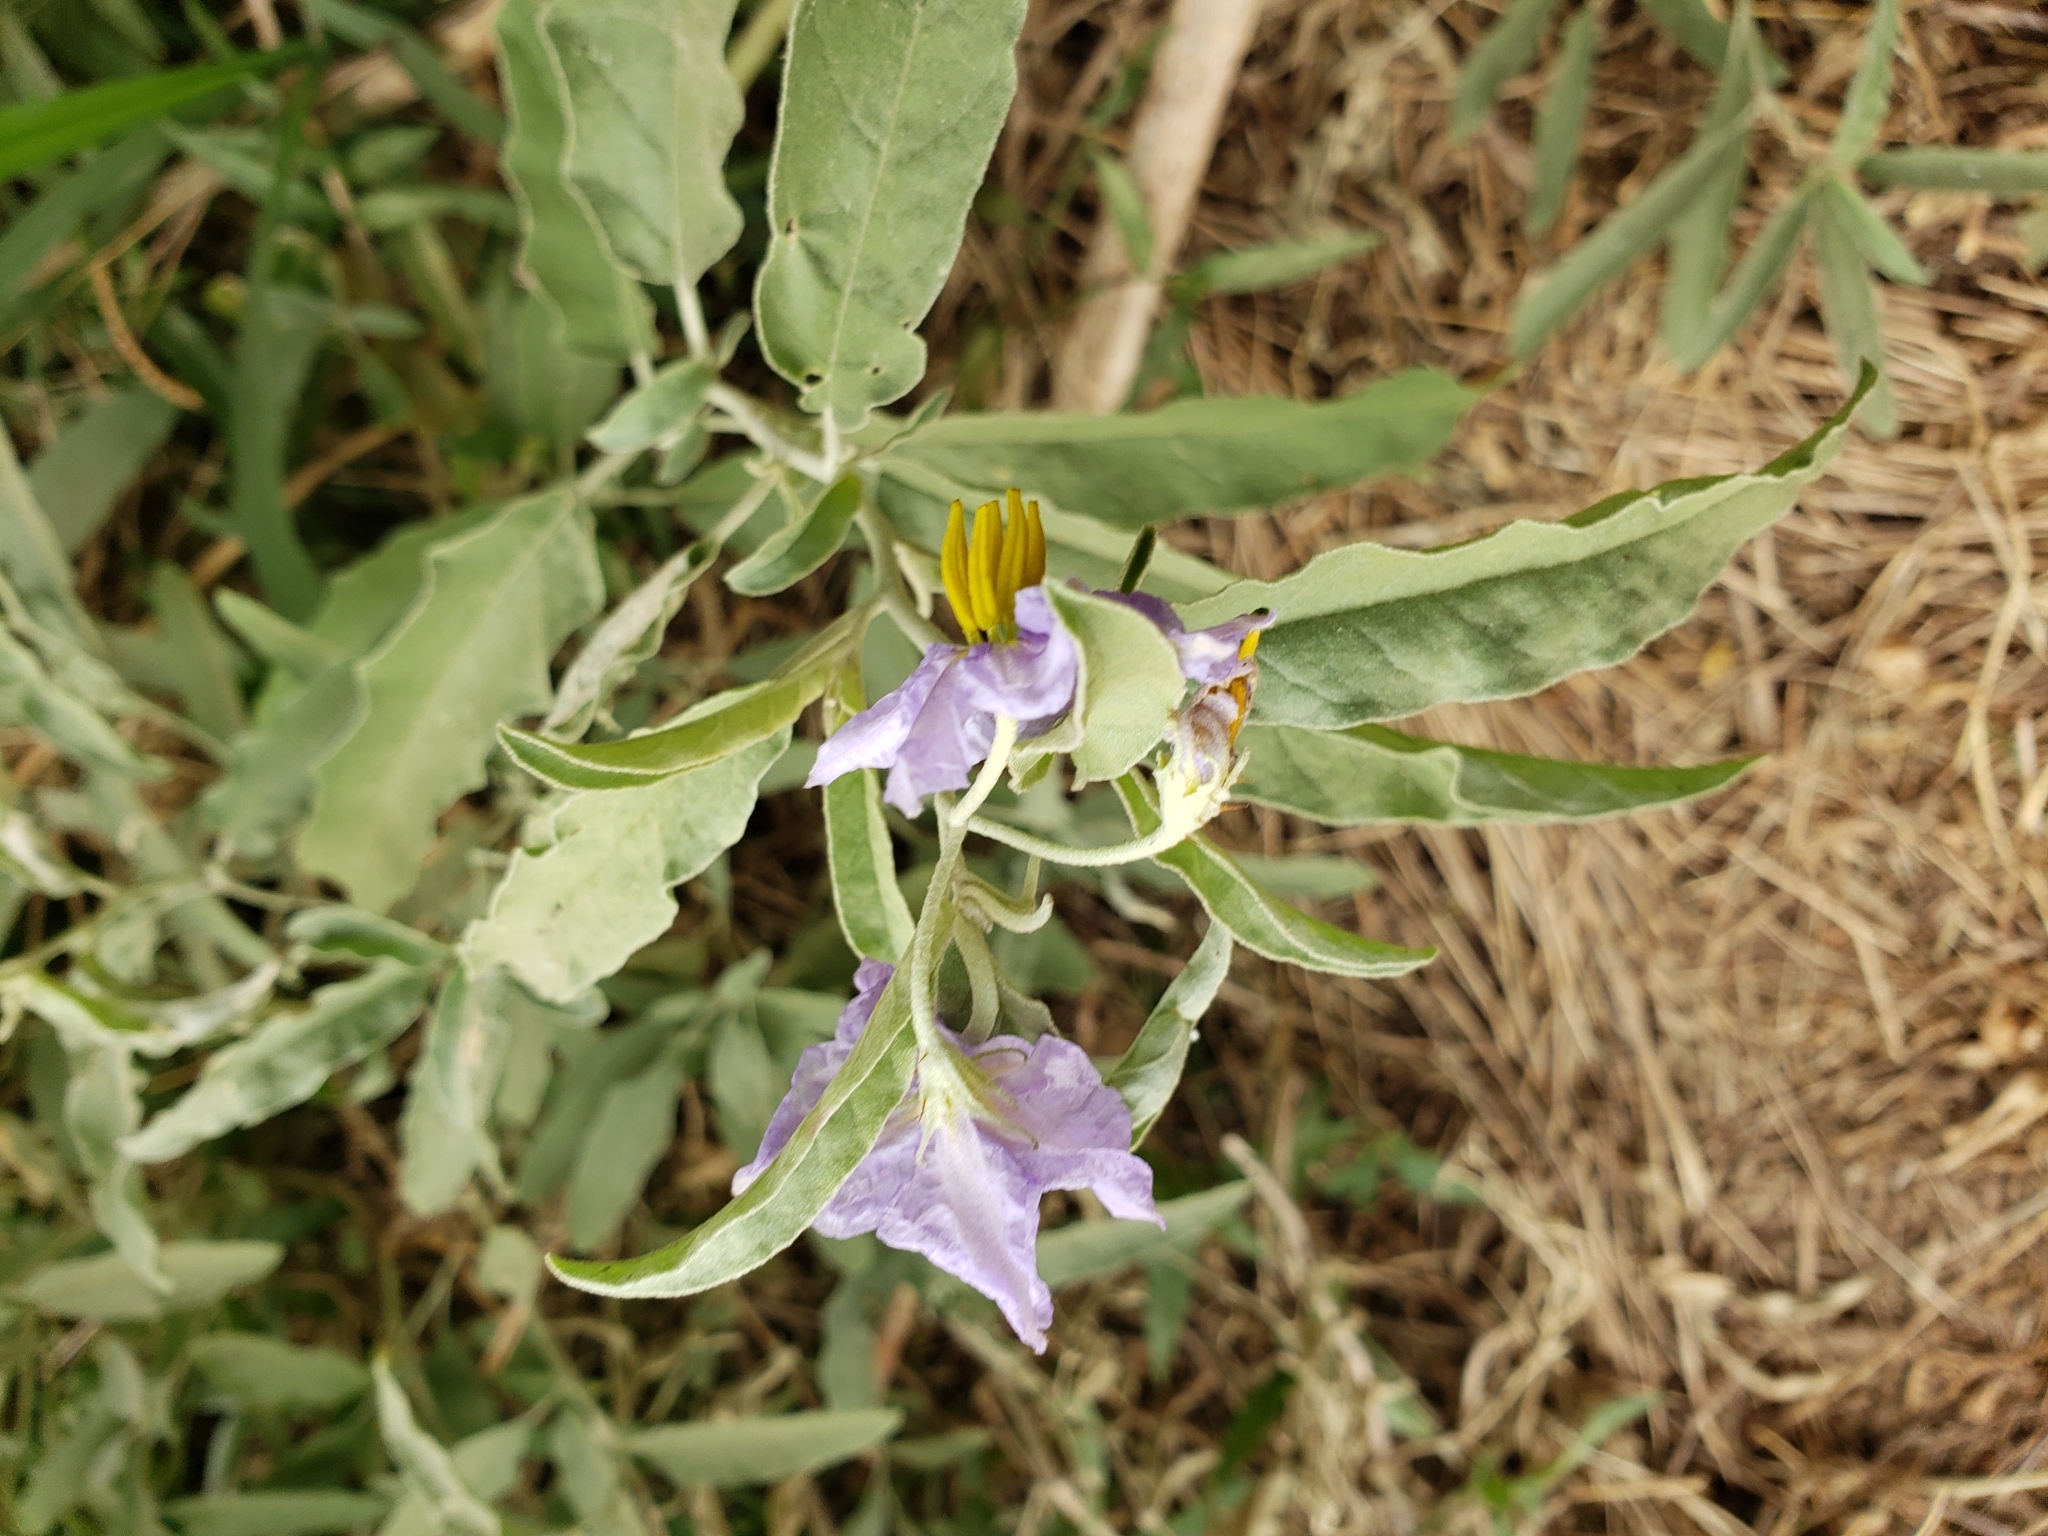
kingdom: Plantae
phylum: Tracheophyta
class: Magnoliopsida
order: Solanales
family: Solanaceae
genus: Solanum
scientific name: Solanum elaeagnifolium
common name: Silverleaf nightshade
